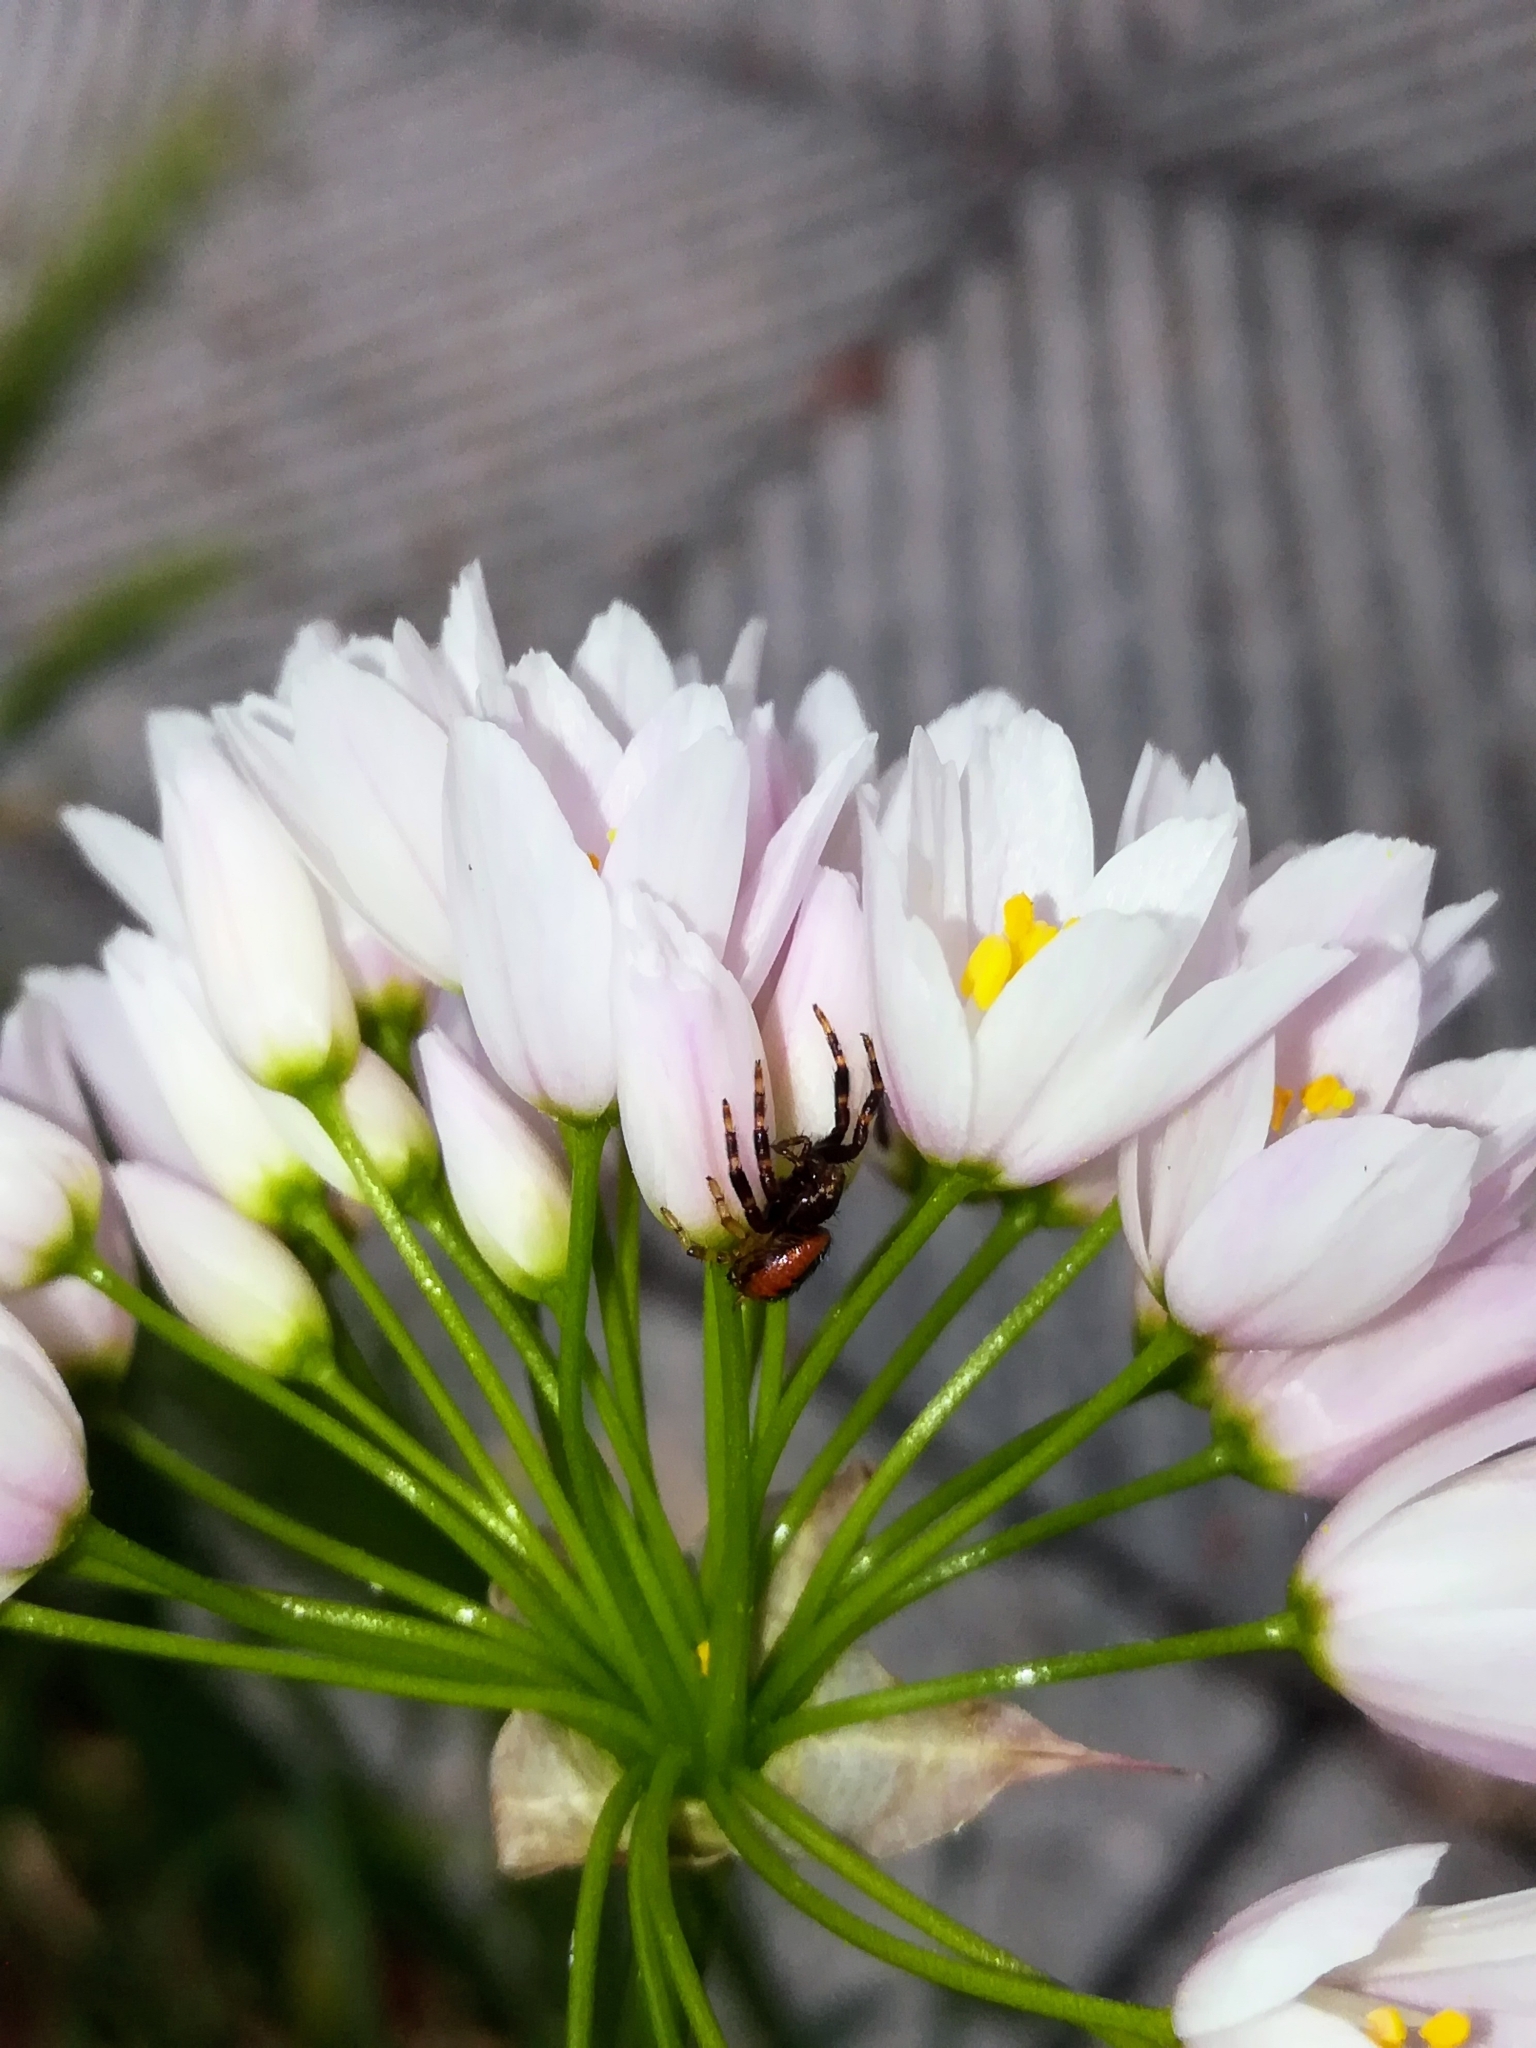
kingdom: Plantae
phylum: Tracheophyta
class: Liliopsida
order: Asparagales
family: Amaryllidaceae
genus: Allium
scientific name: Allium roseum
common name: Rosy garlic
